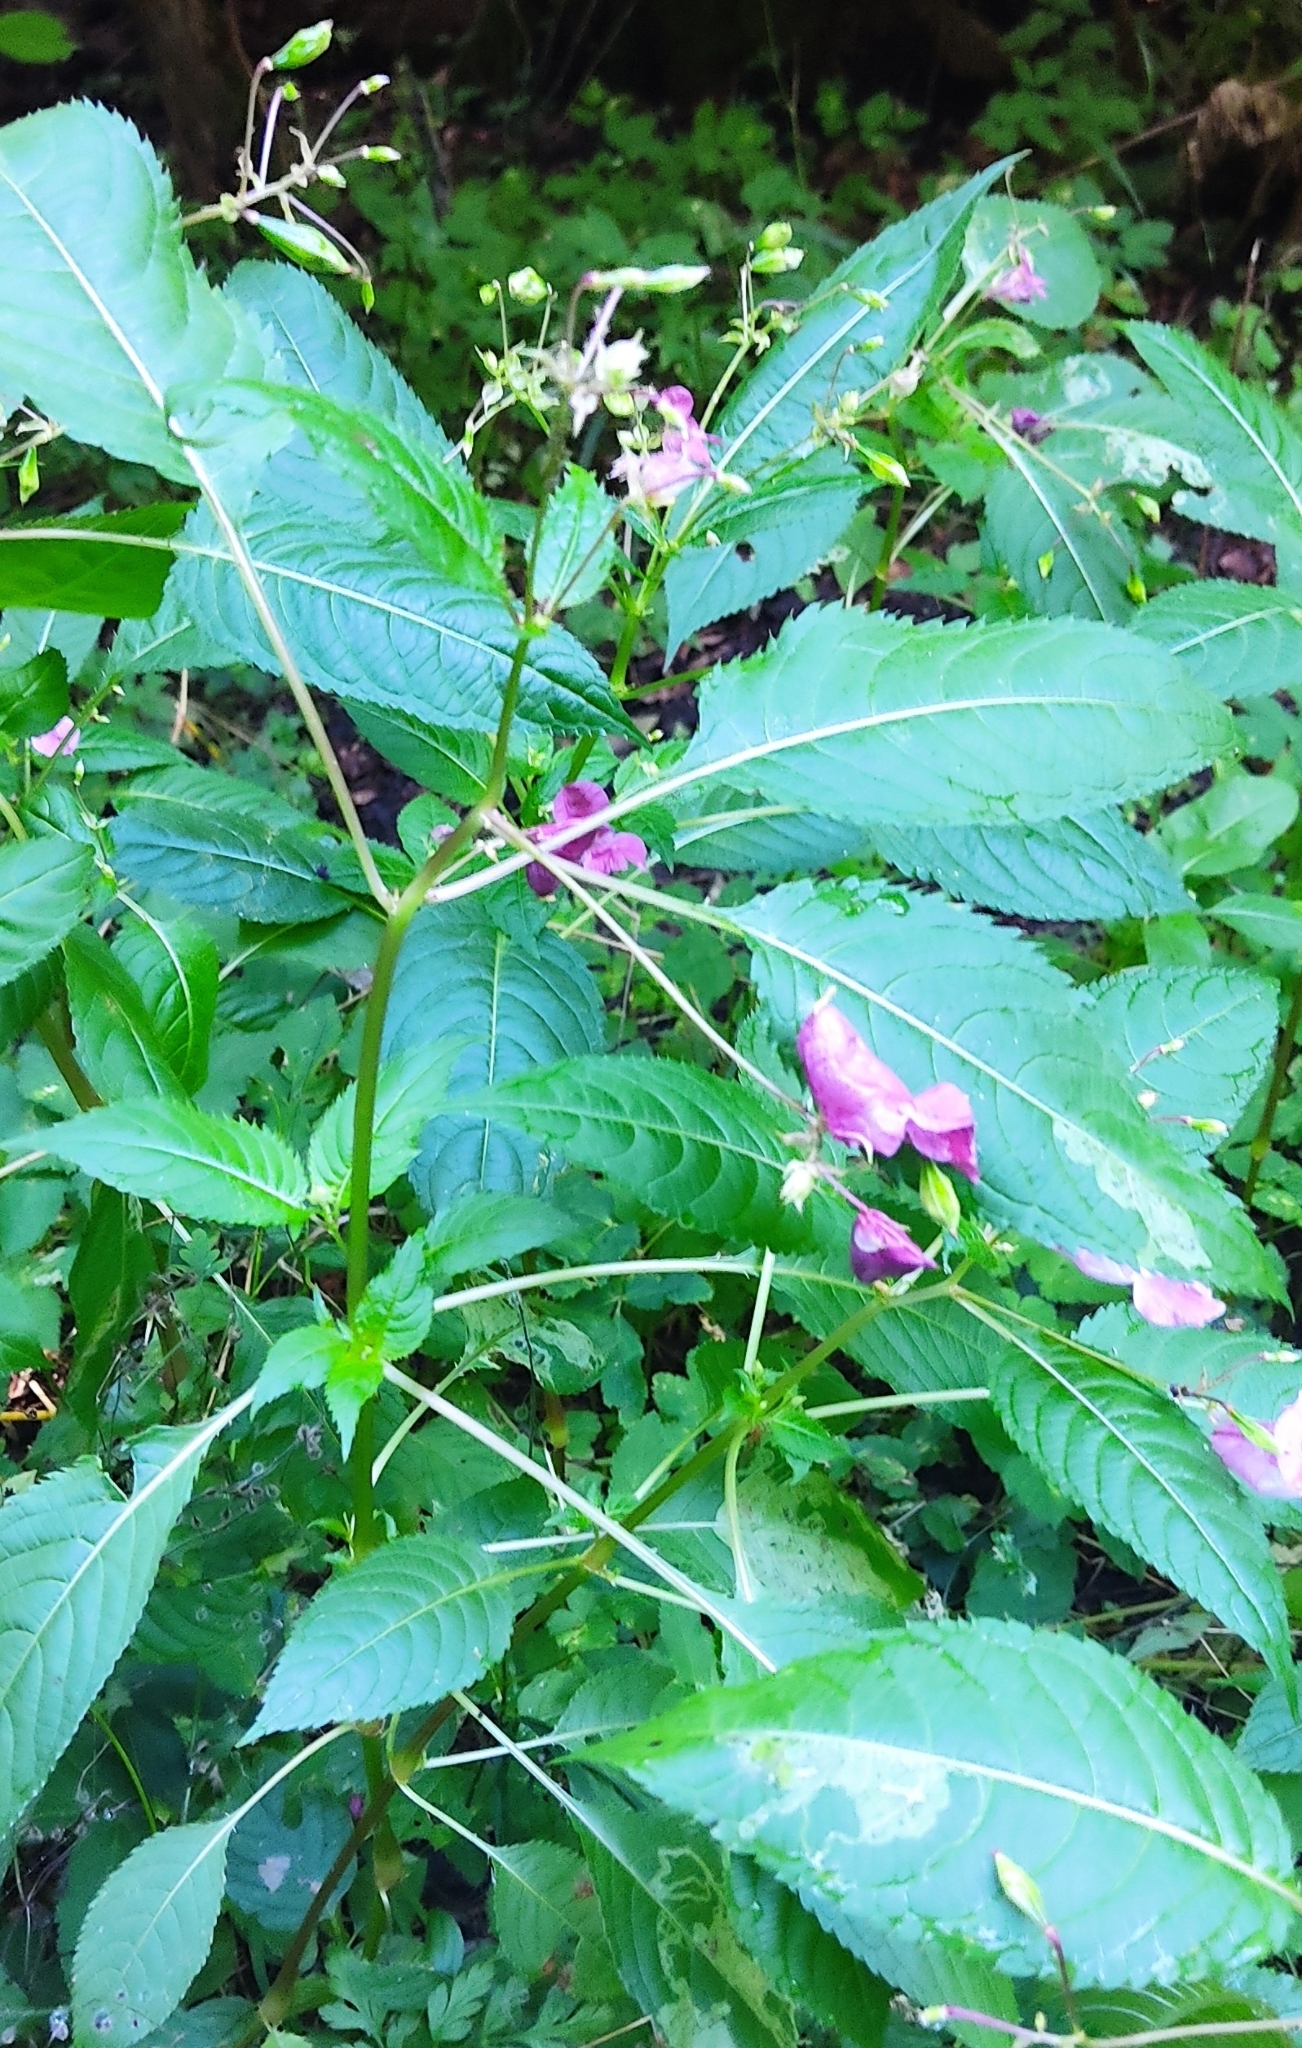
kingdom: Plantae
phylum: Tracheophyta
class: Magnoliopsida
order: Ericales
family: Balsaminaceae
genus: Impatiens
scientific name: Impatiens glandulifera
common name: Himalayan balsam
